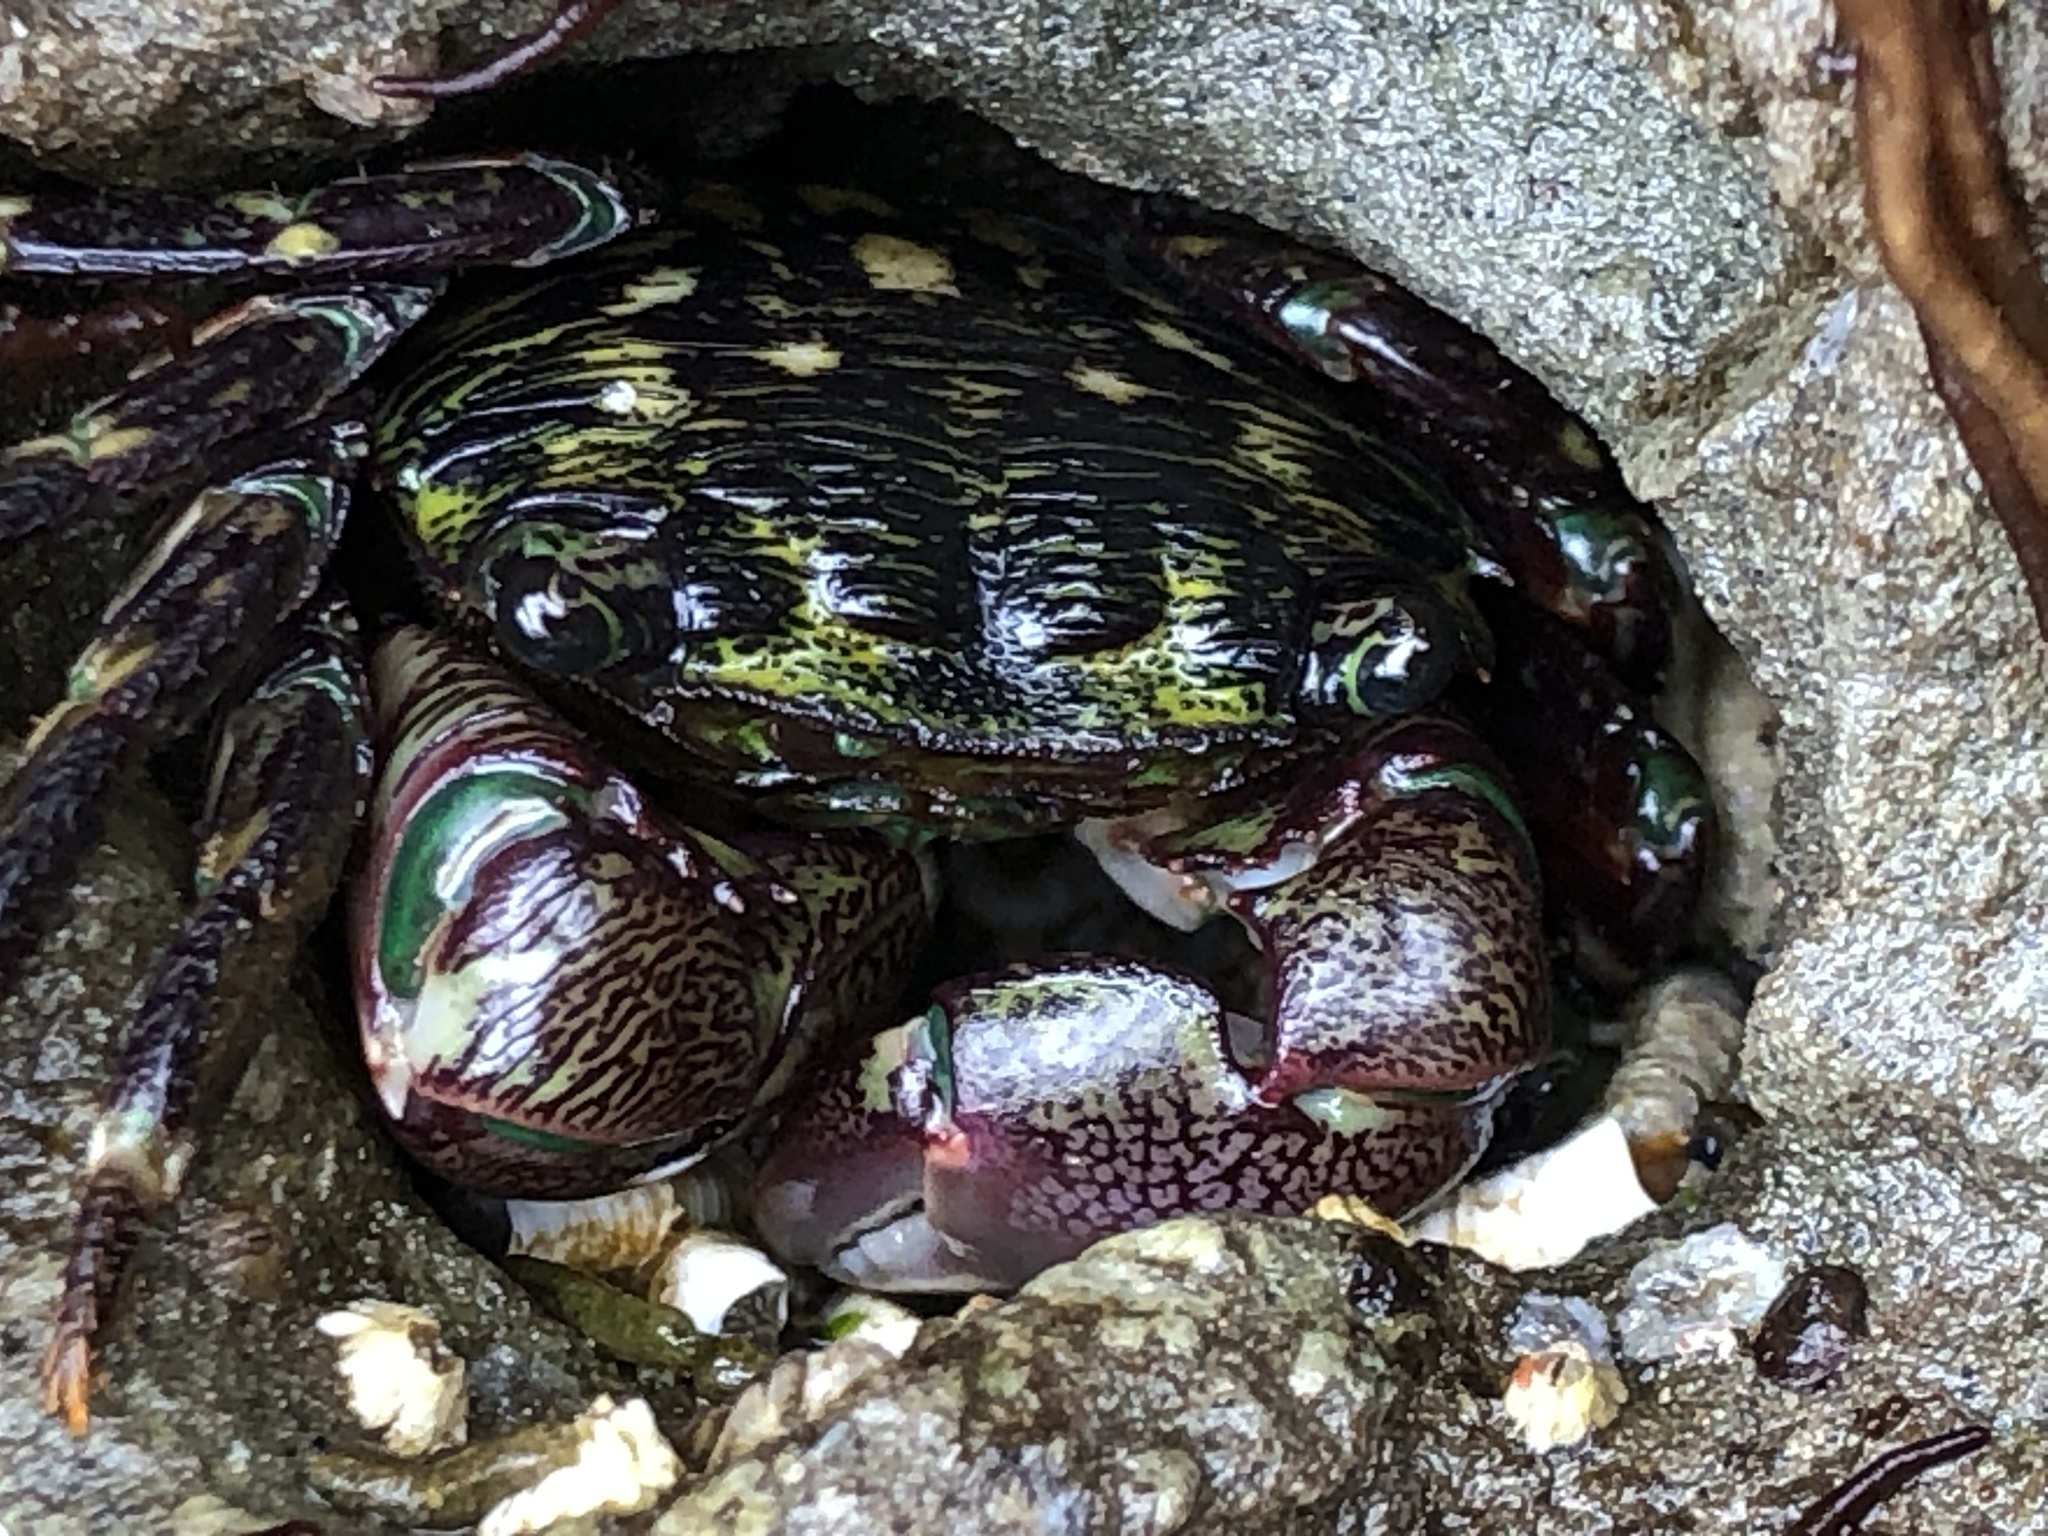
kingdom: Animalia
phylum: Arthropoda
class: Malacostraca
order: Decapoda
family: Grapsidae
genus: Pachygrapsus
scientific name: Pachygrapsus crassipes
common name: Striped shore crab
